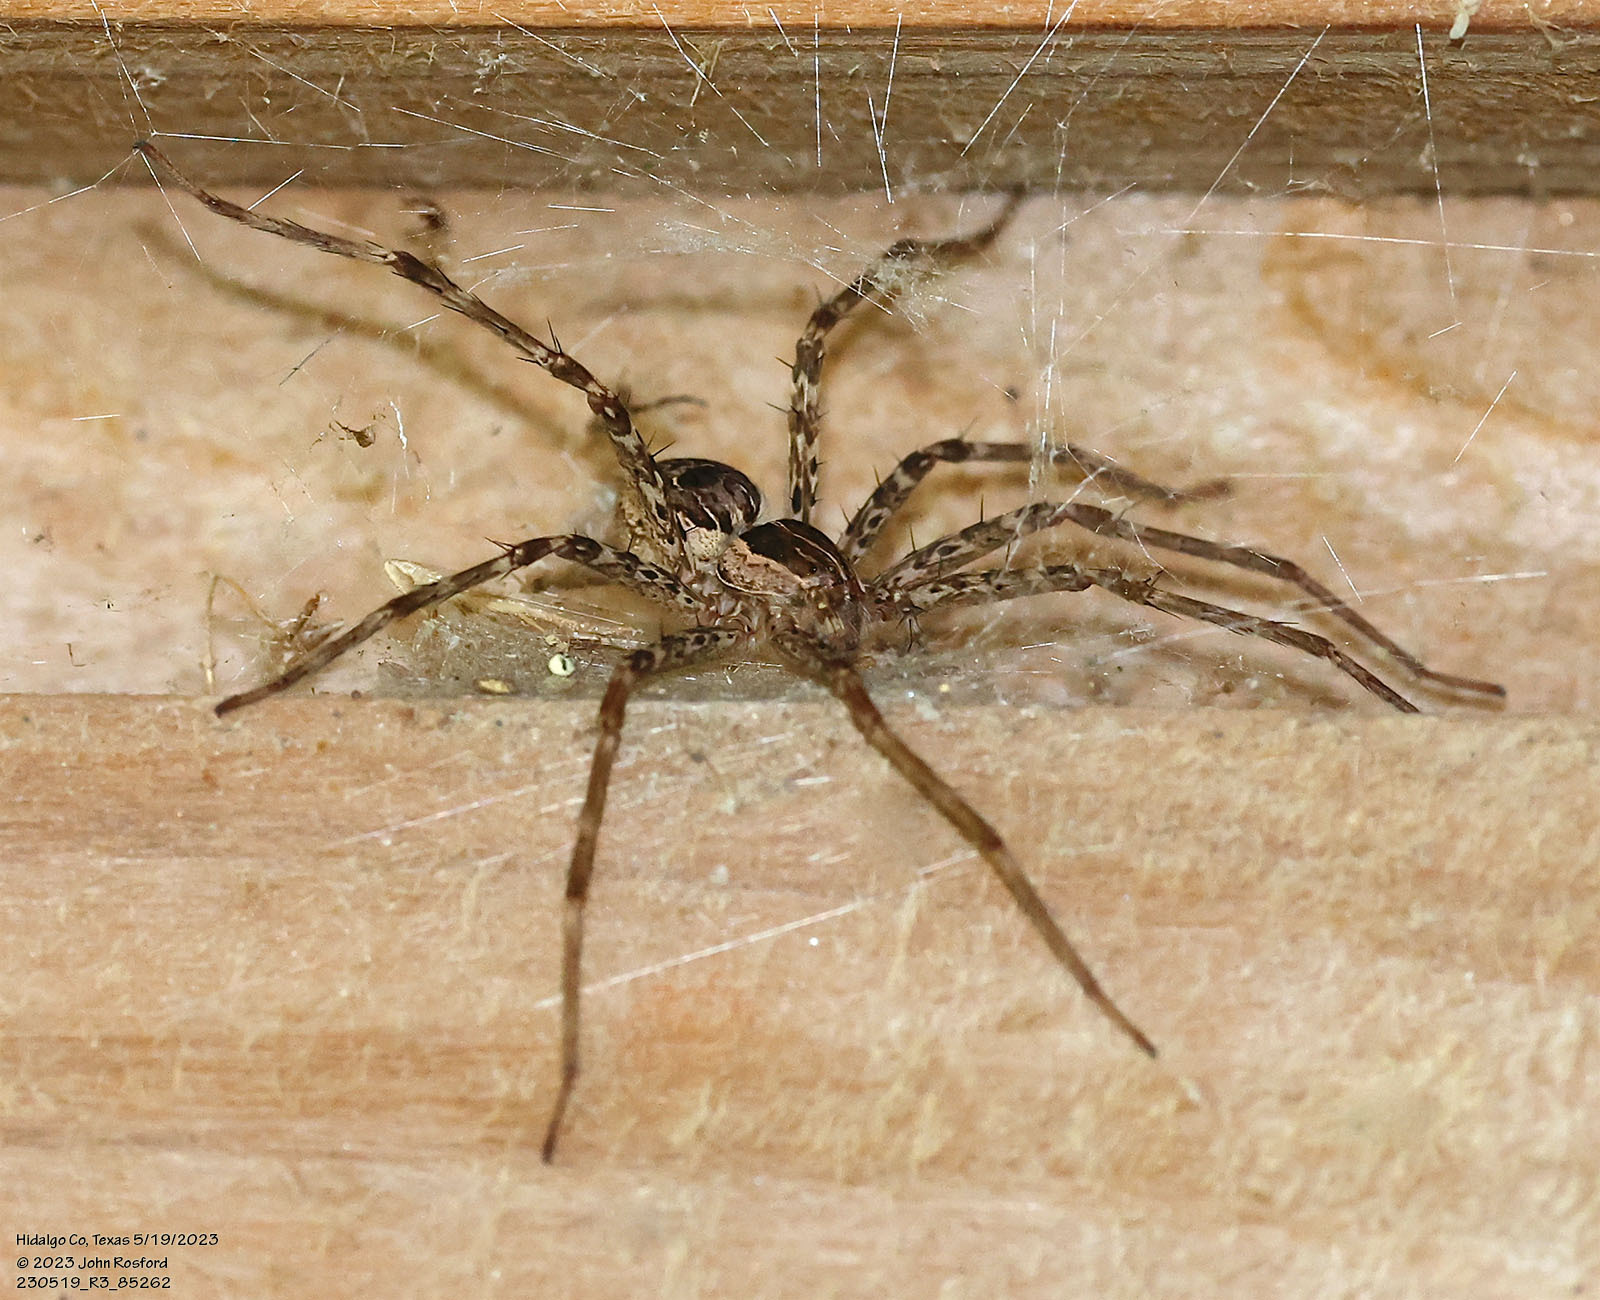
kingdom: Animalia
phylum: Arthropoda
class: Arachnida
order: Araneae
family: Pisauridae
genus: Tinus
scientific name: Tinus peregrinus
